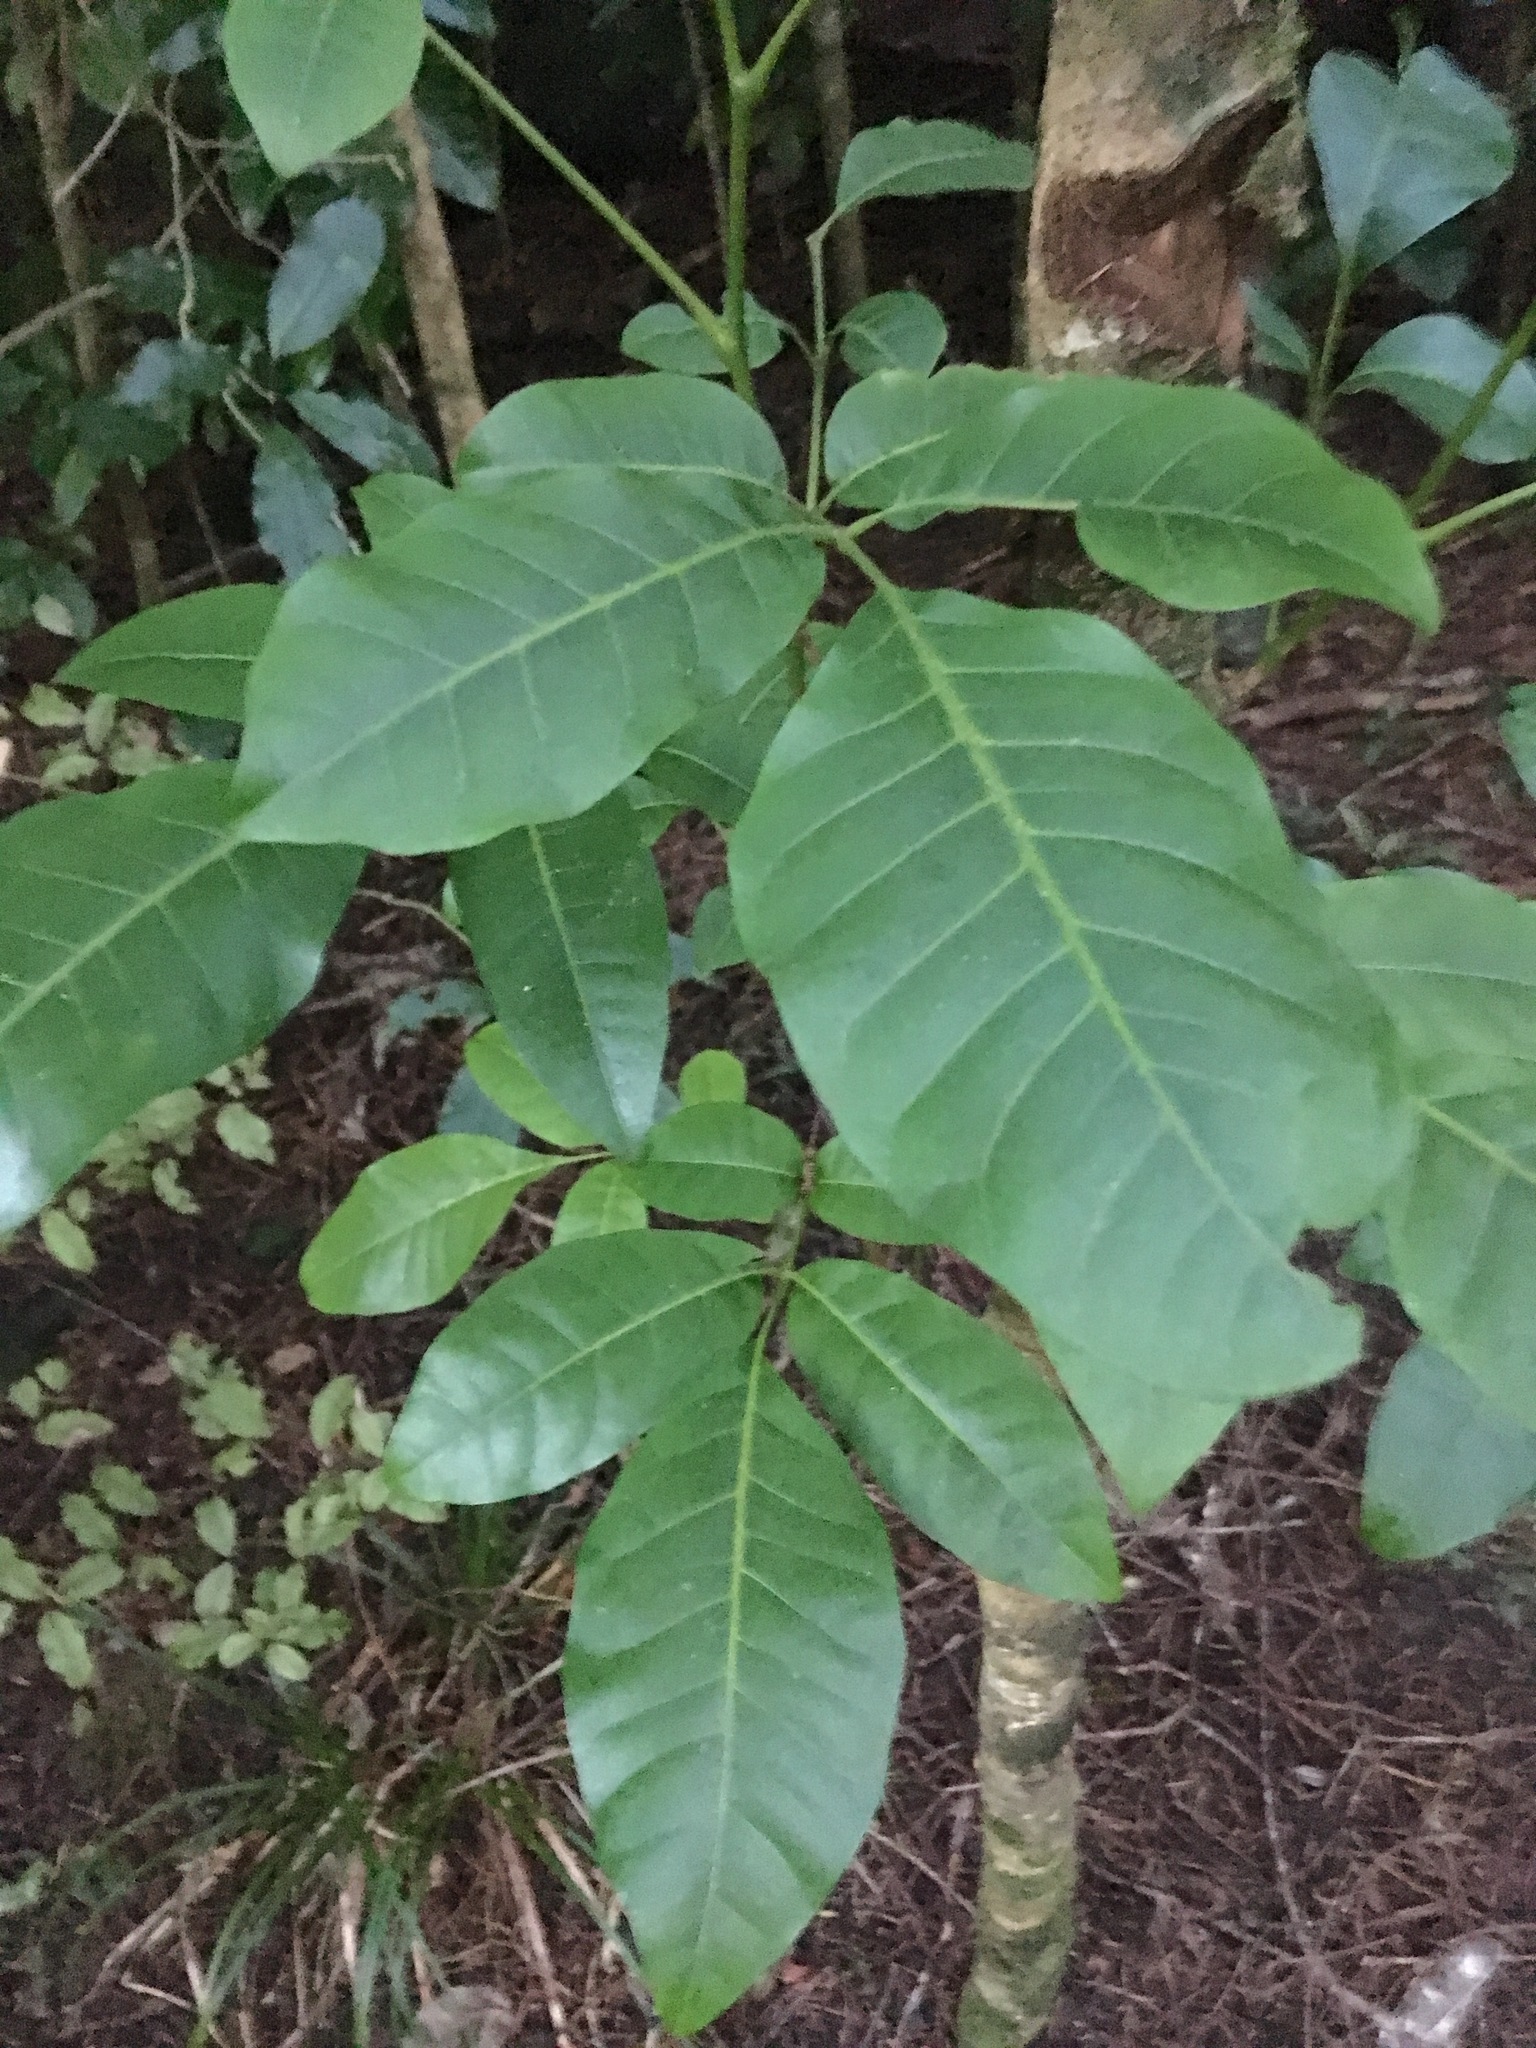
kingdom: Plantae
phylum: Tracheophyta
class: Magnoliopsida
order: Sapindales
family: Meliaceae
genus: Didymocheton
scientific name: Didymocheton spectabilis
